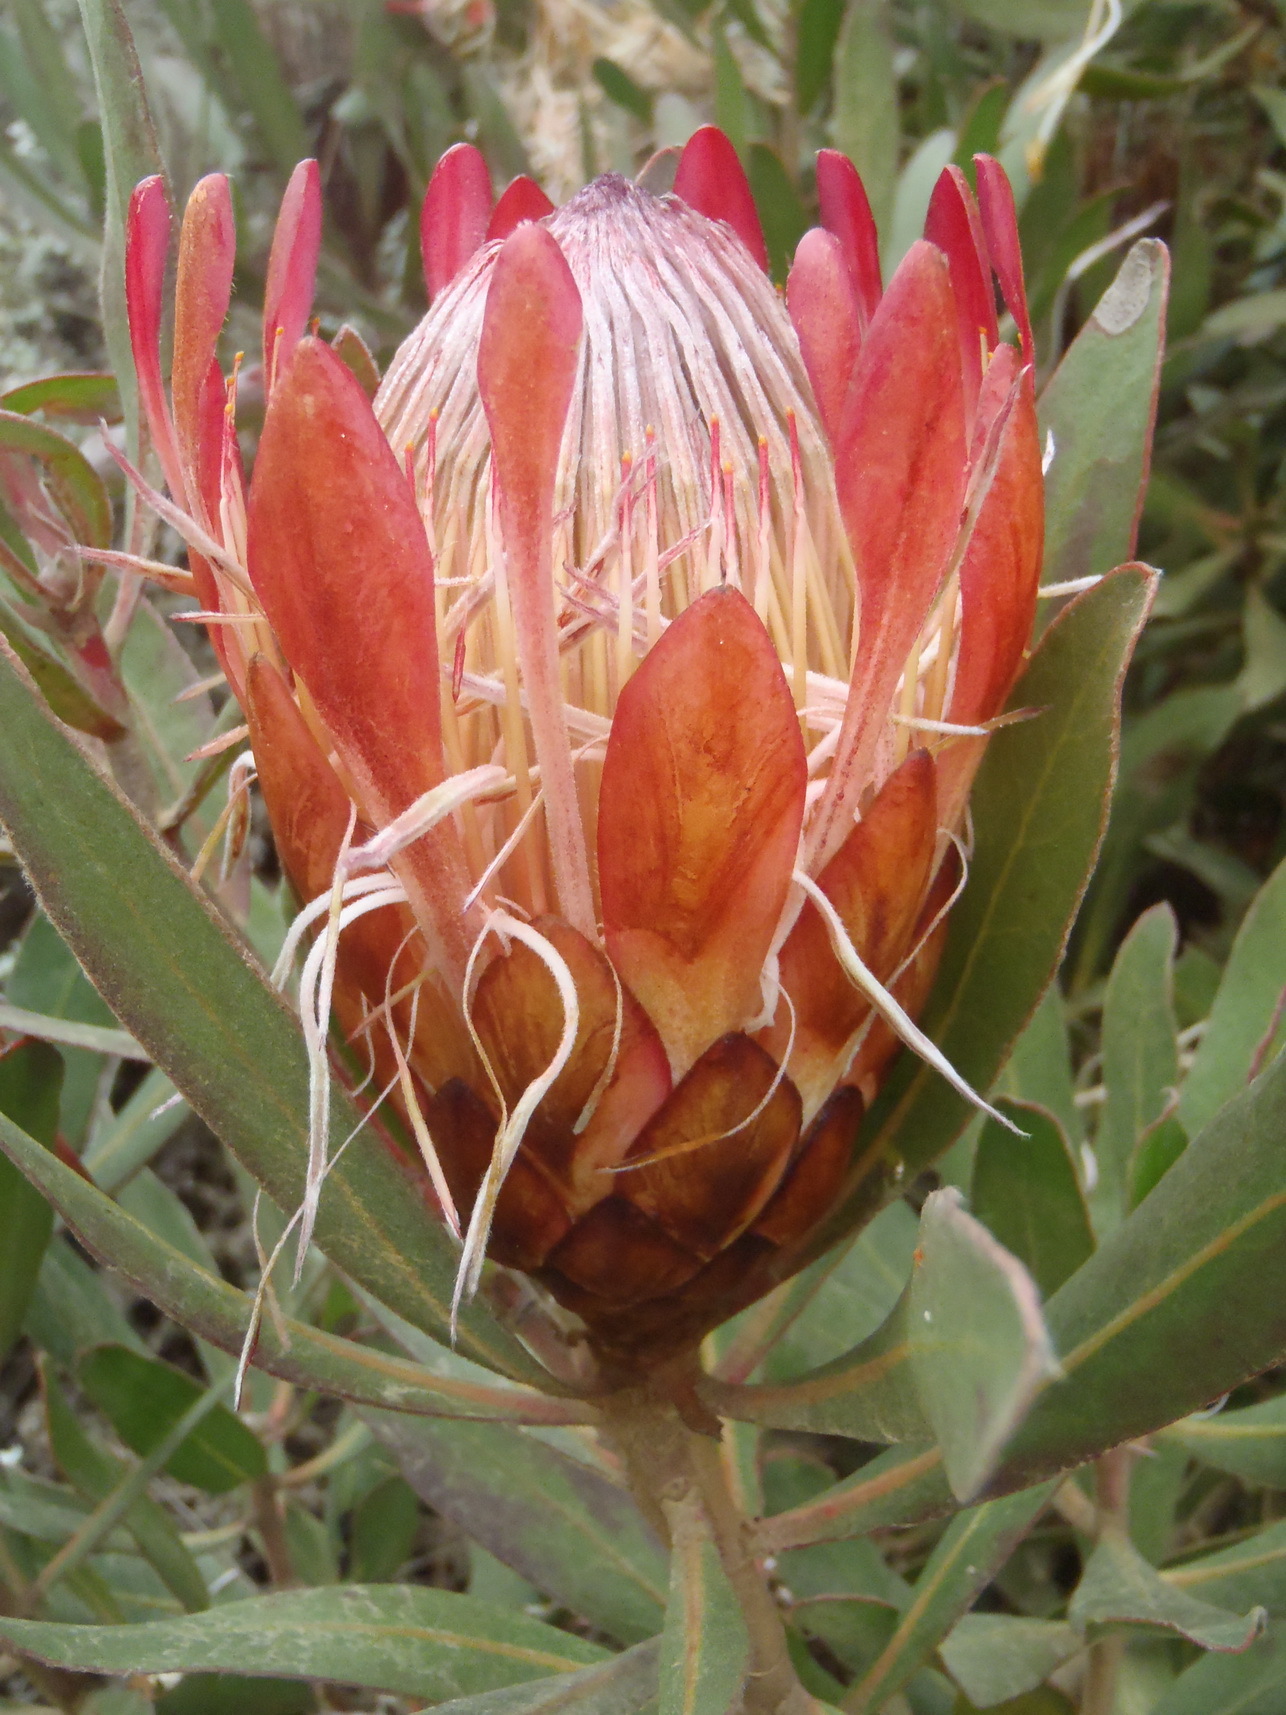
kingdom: Plantae
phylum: Tracheophyta
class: Magnoliopsida
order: Proteales
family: Proteaceae
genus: Protea
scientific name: Protea susannae
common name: Foetid-leaf sugarbush
